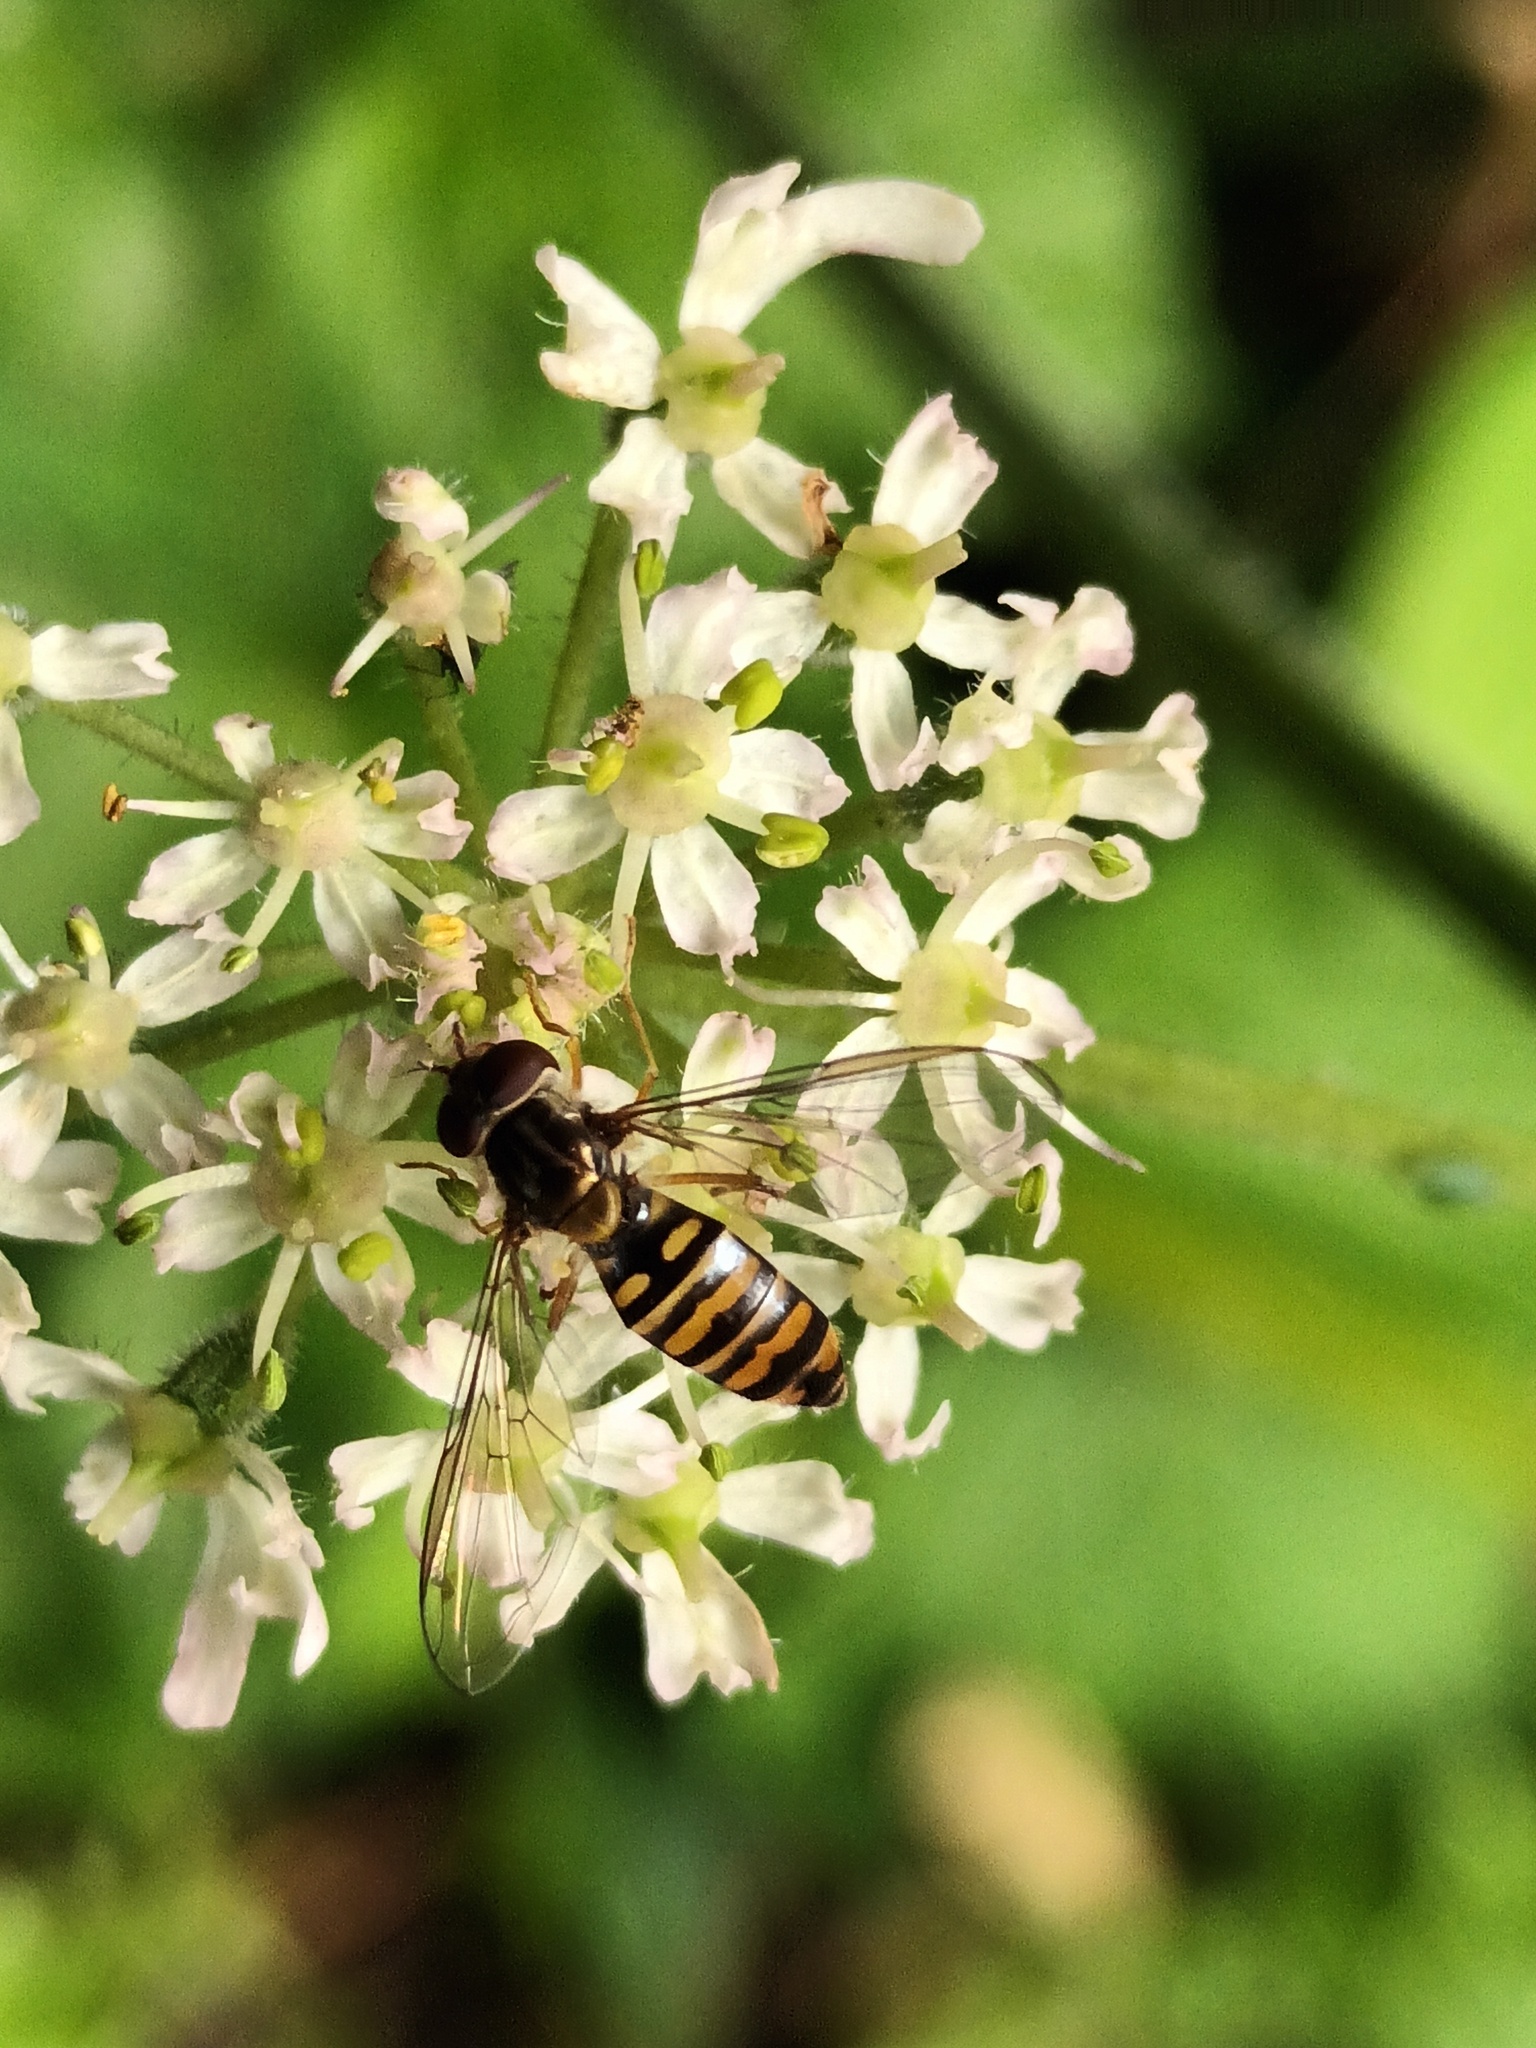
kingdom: Animalia
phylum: Arthropoda
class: Insecta
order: Diptera
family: Syrphidae
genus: Episyrphus
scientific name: Episyrphus balteatus
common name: Marmalade hoverfly
